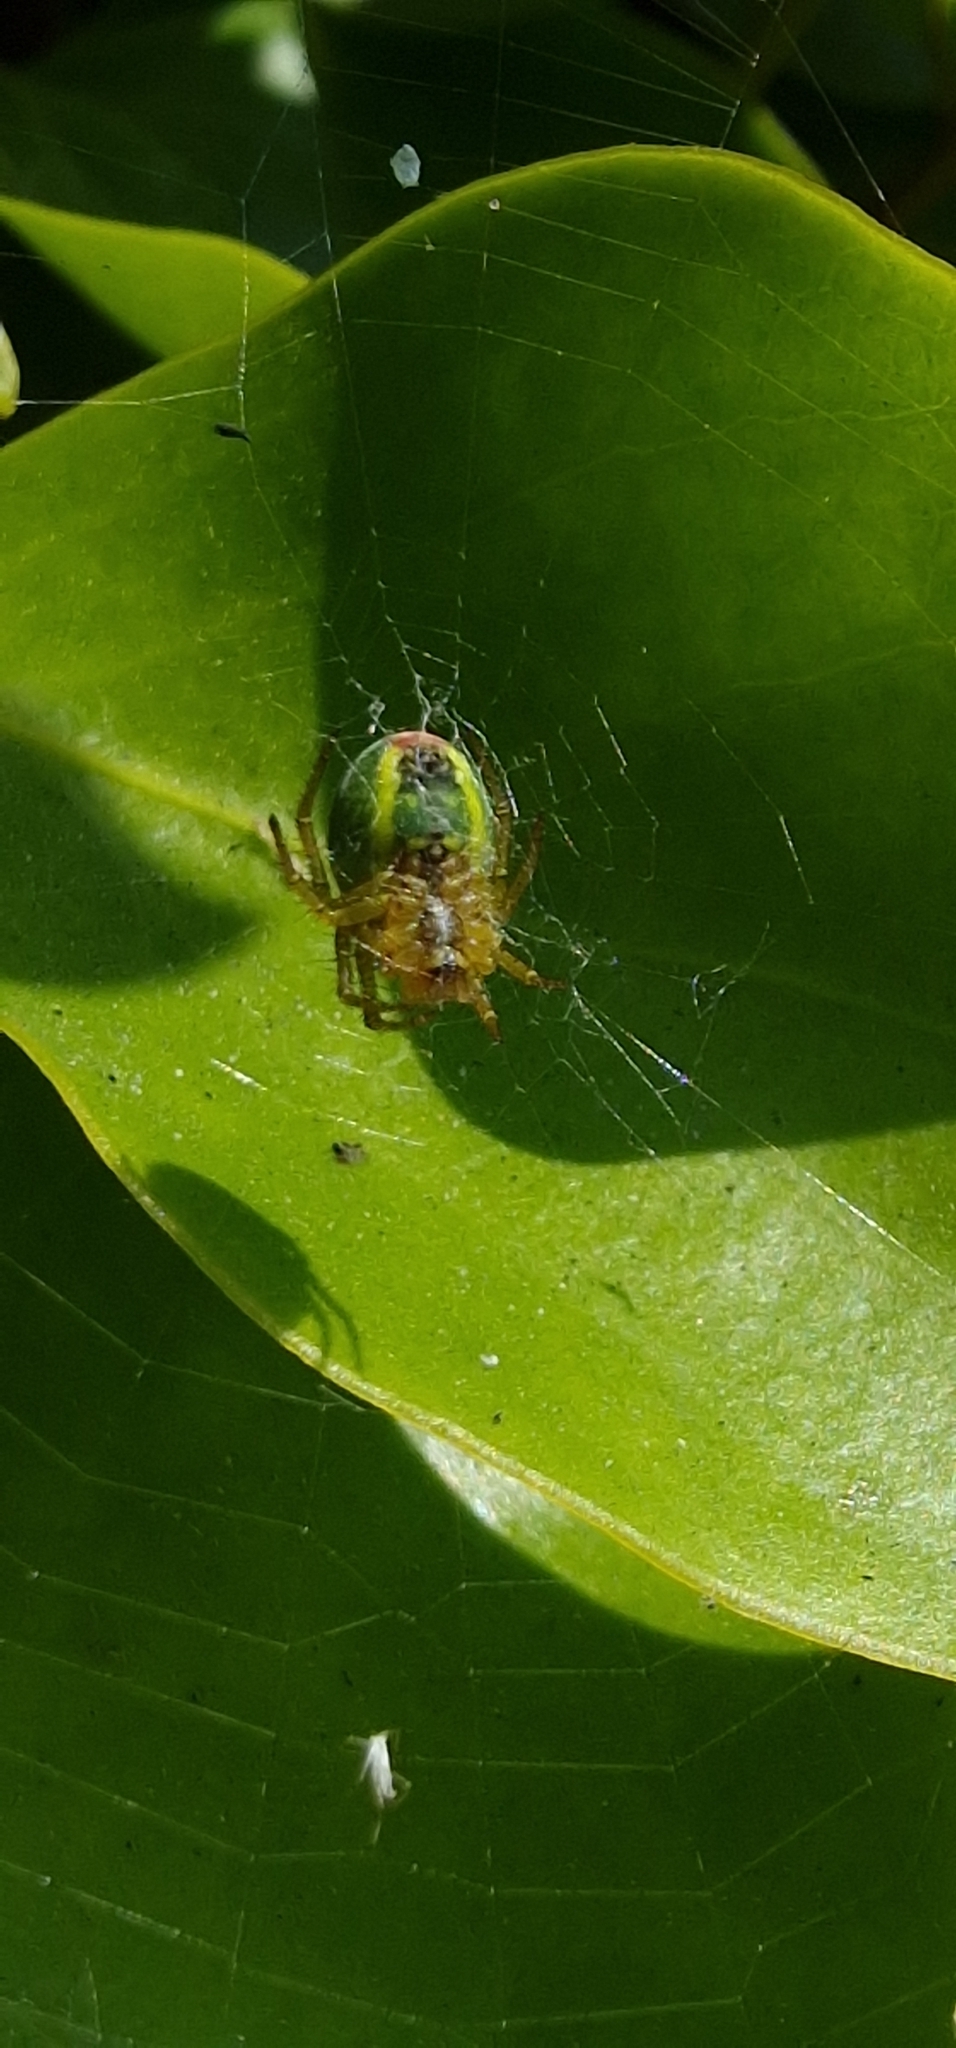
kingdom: Animalia
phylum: Arthropoda
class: Arachnida
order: Araneae
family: Araneidae
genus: Araniella
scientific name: Araniella cucurbitina
